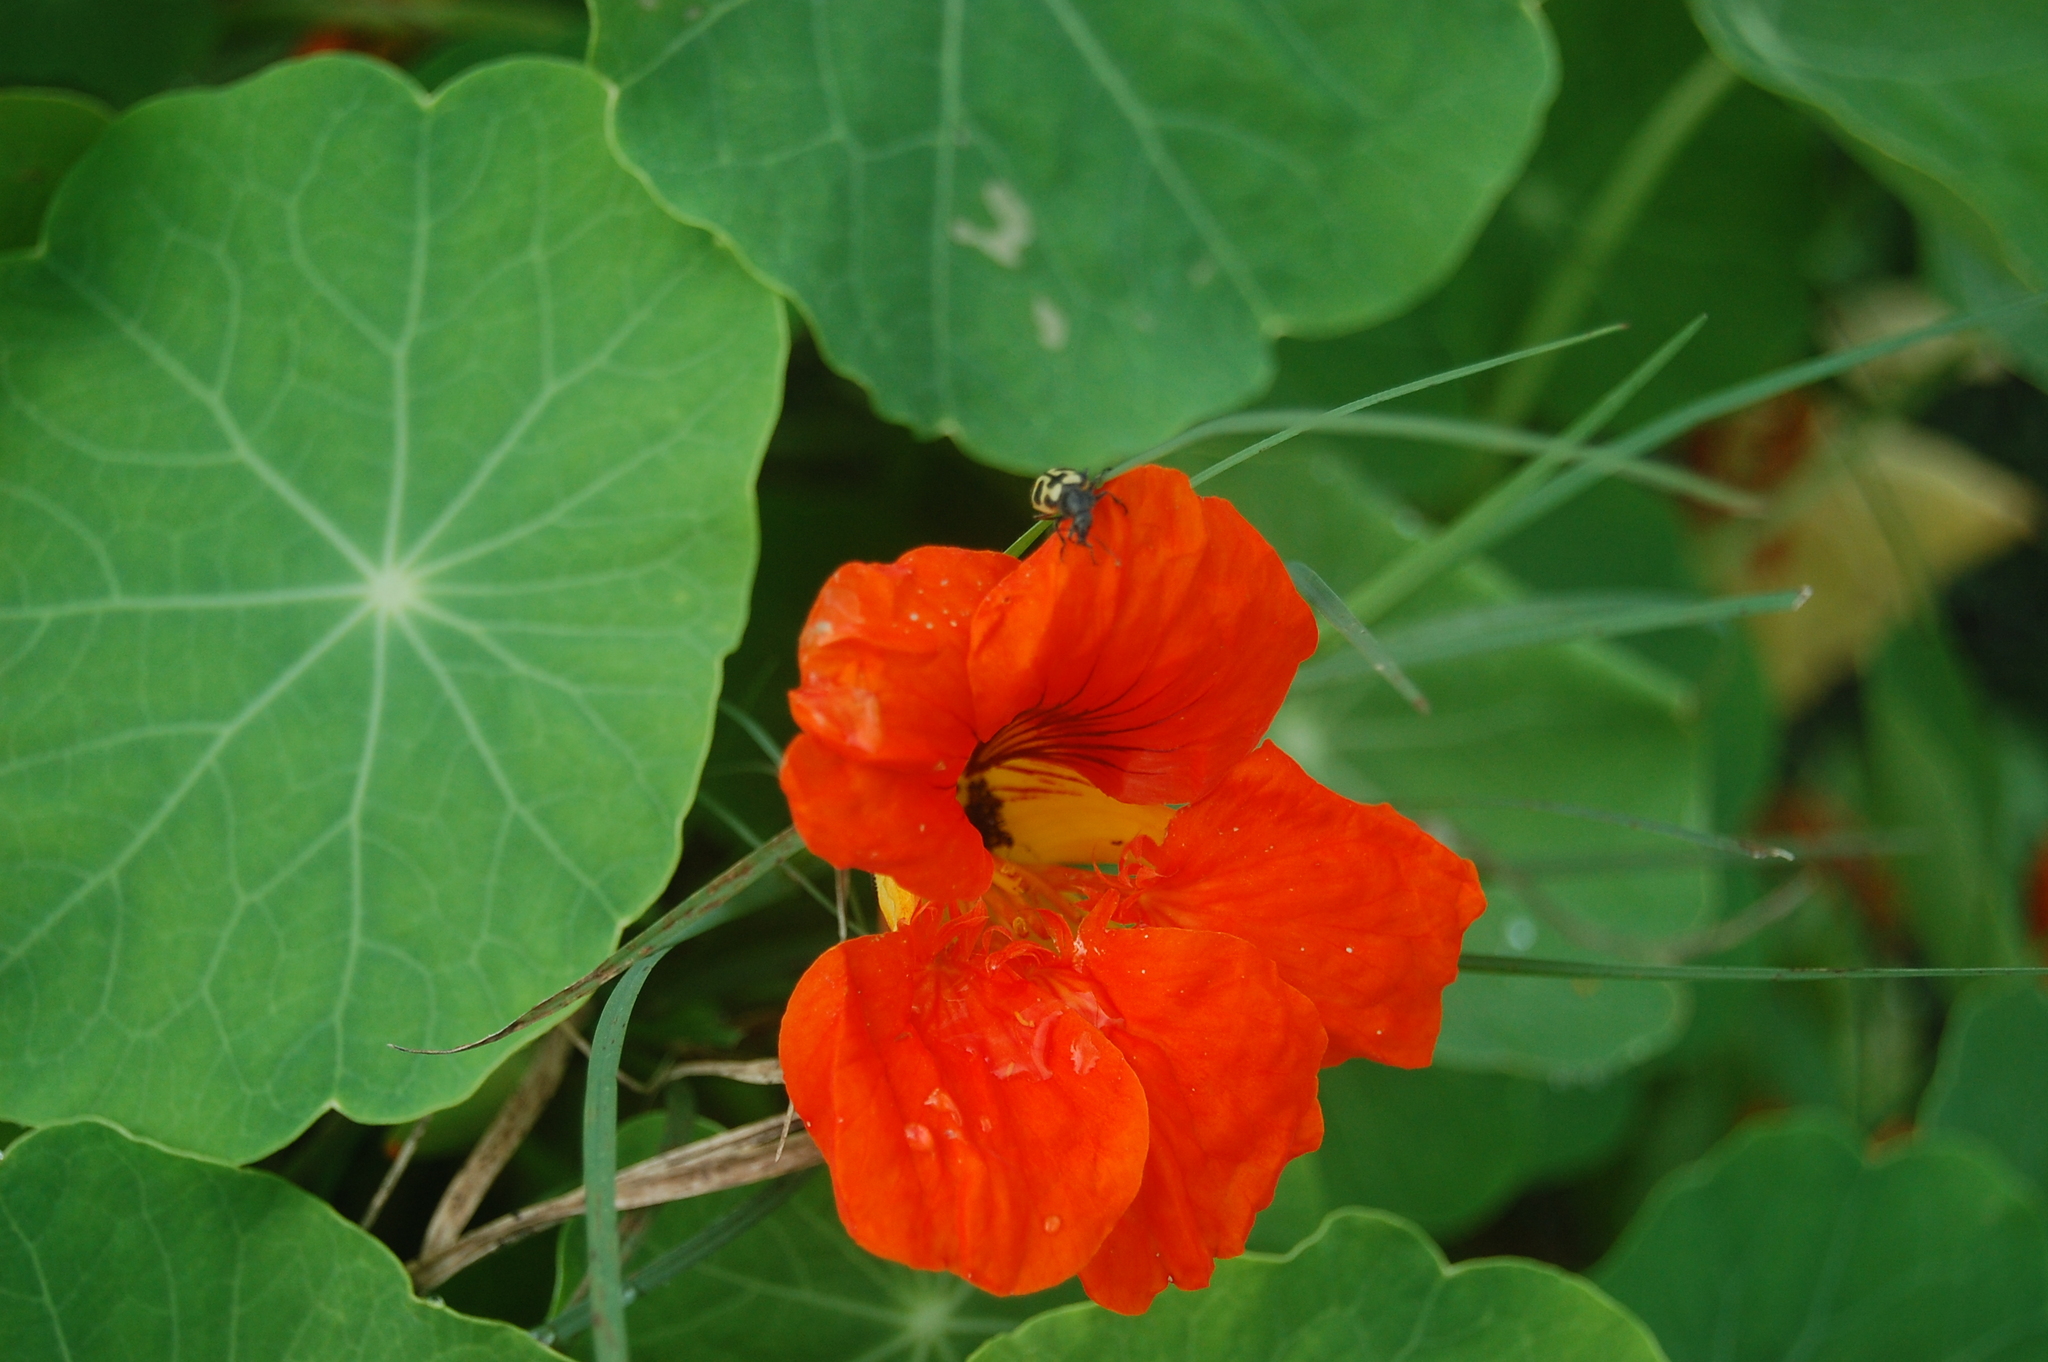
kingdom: Plantae
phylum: Tracheophyta
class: Magnoliopsida
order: Brassicales
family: Tropaeolaceae
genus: Tropaeolum
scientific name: Tropaeolum majus
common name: Nasturtium
